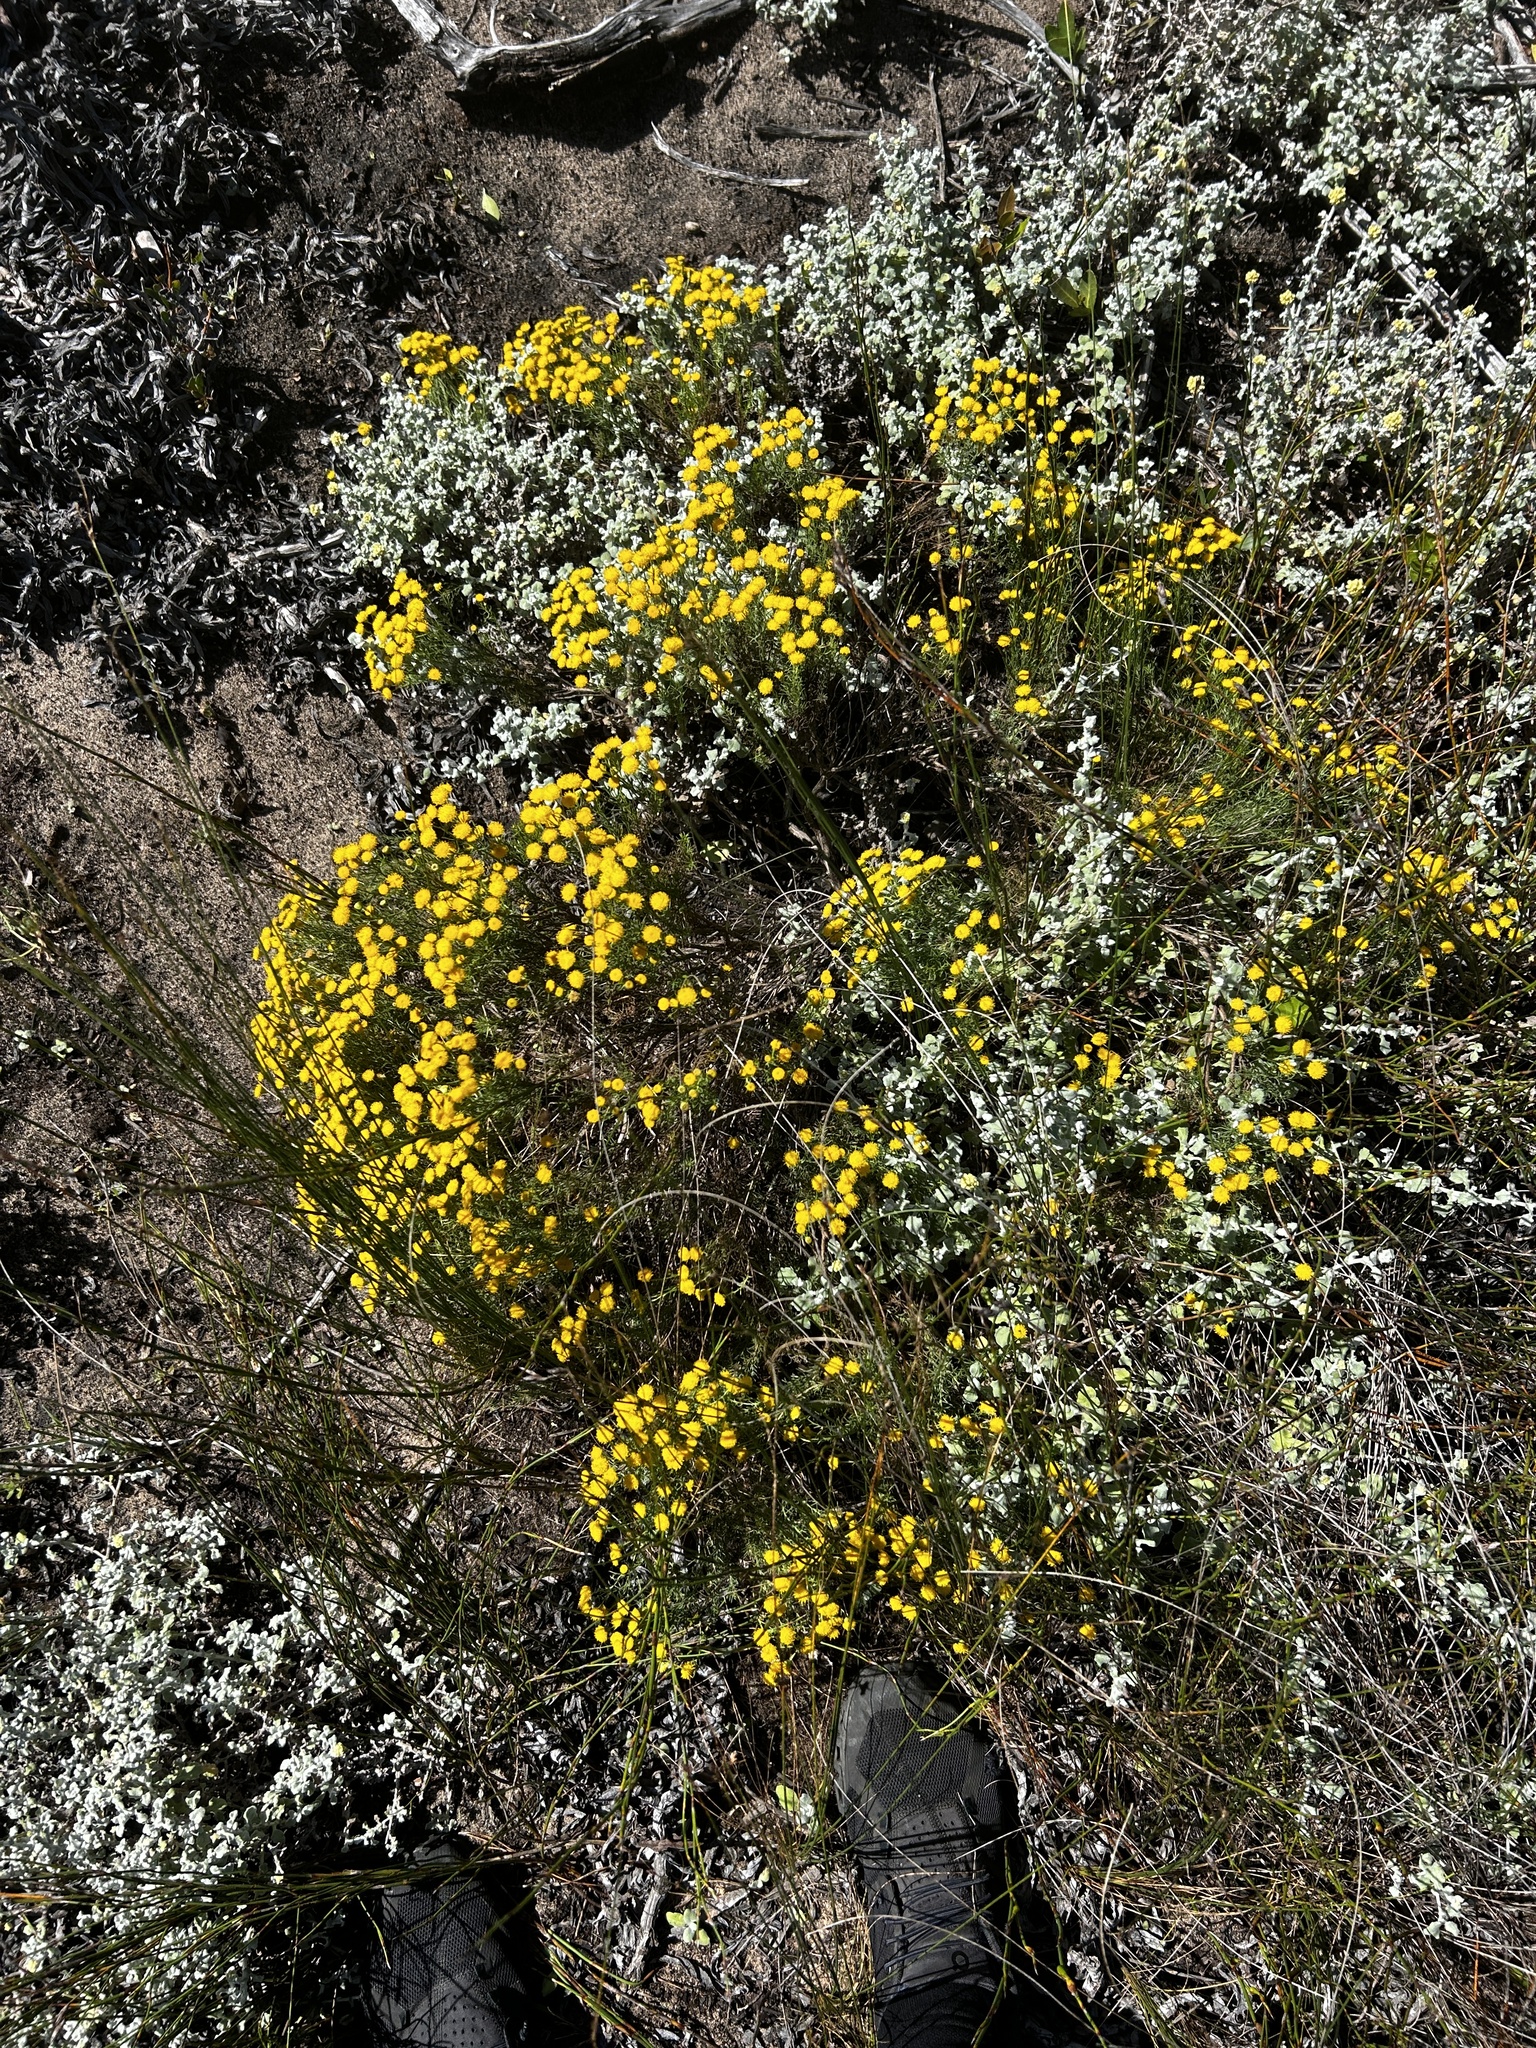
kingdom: Plantae
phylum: Tracheophyta
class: Magnoliopsida
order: Asterales
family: Asteraceae
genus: Chrysocoma
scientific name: Chrysocoma ciliata
